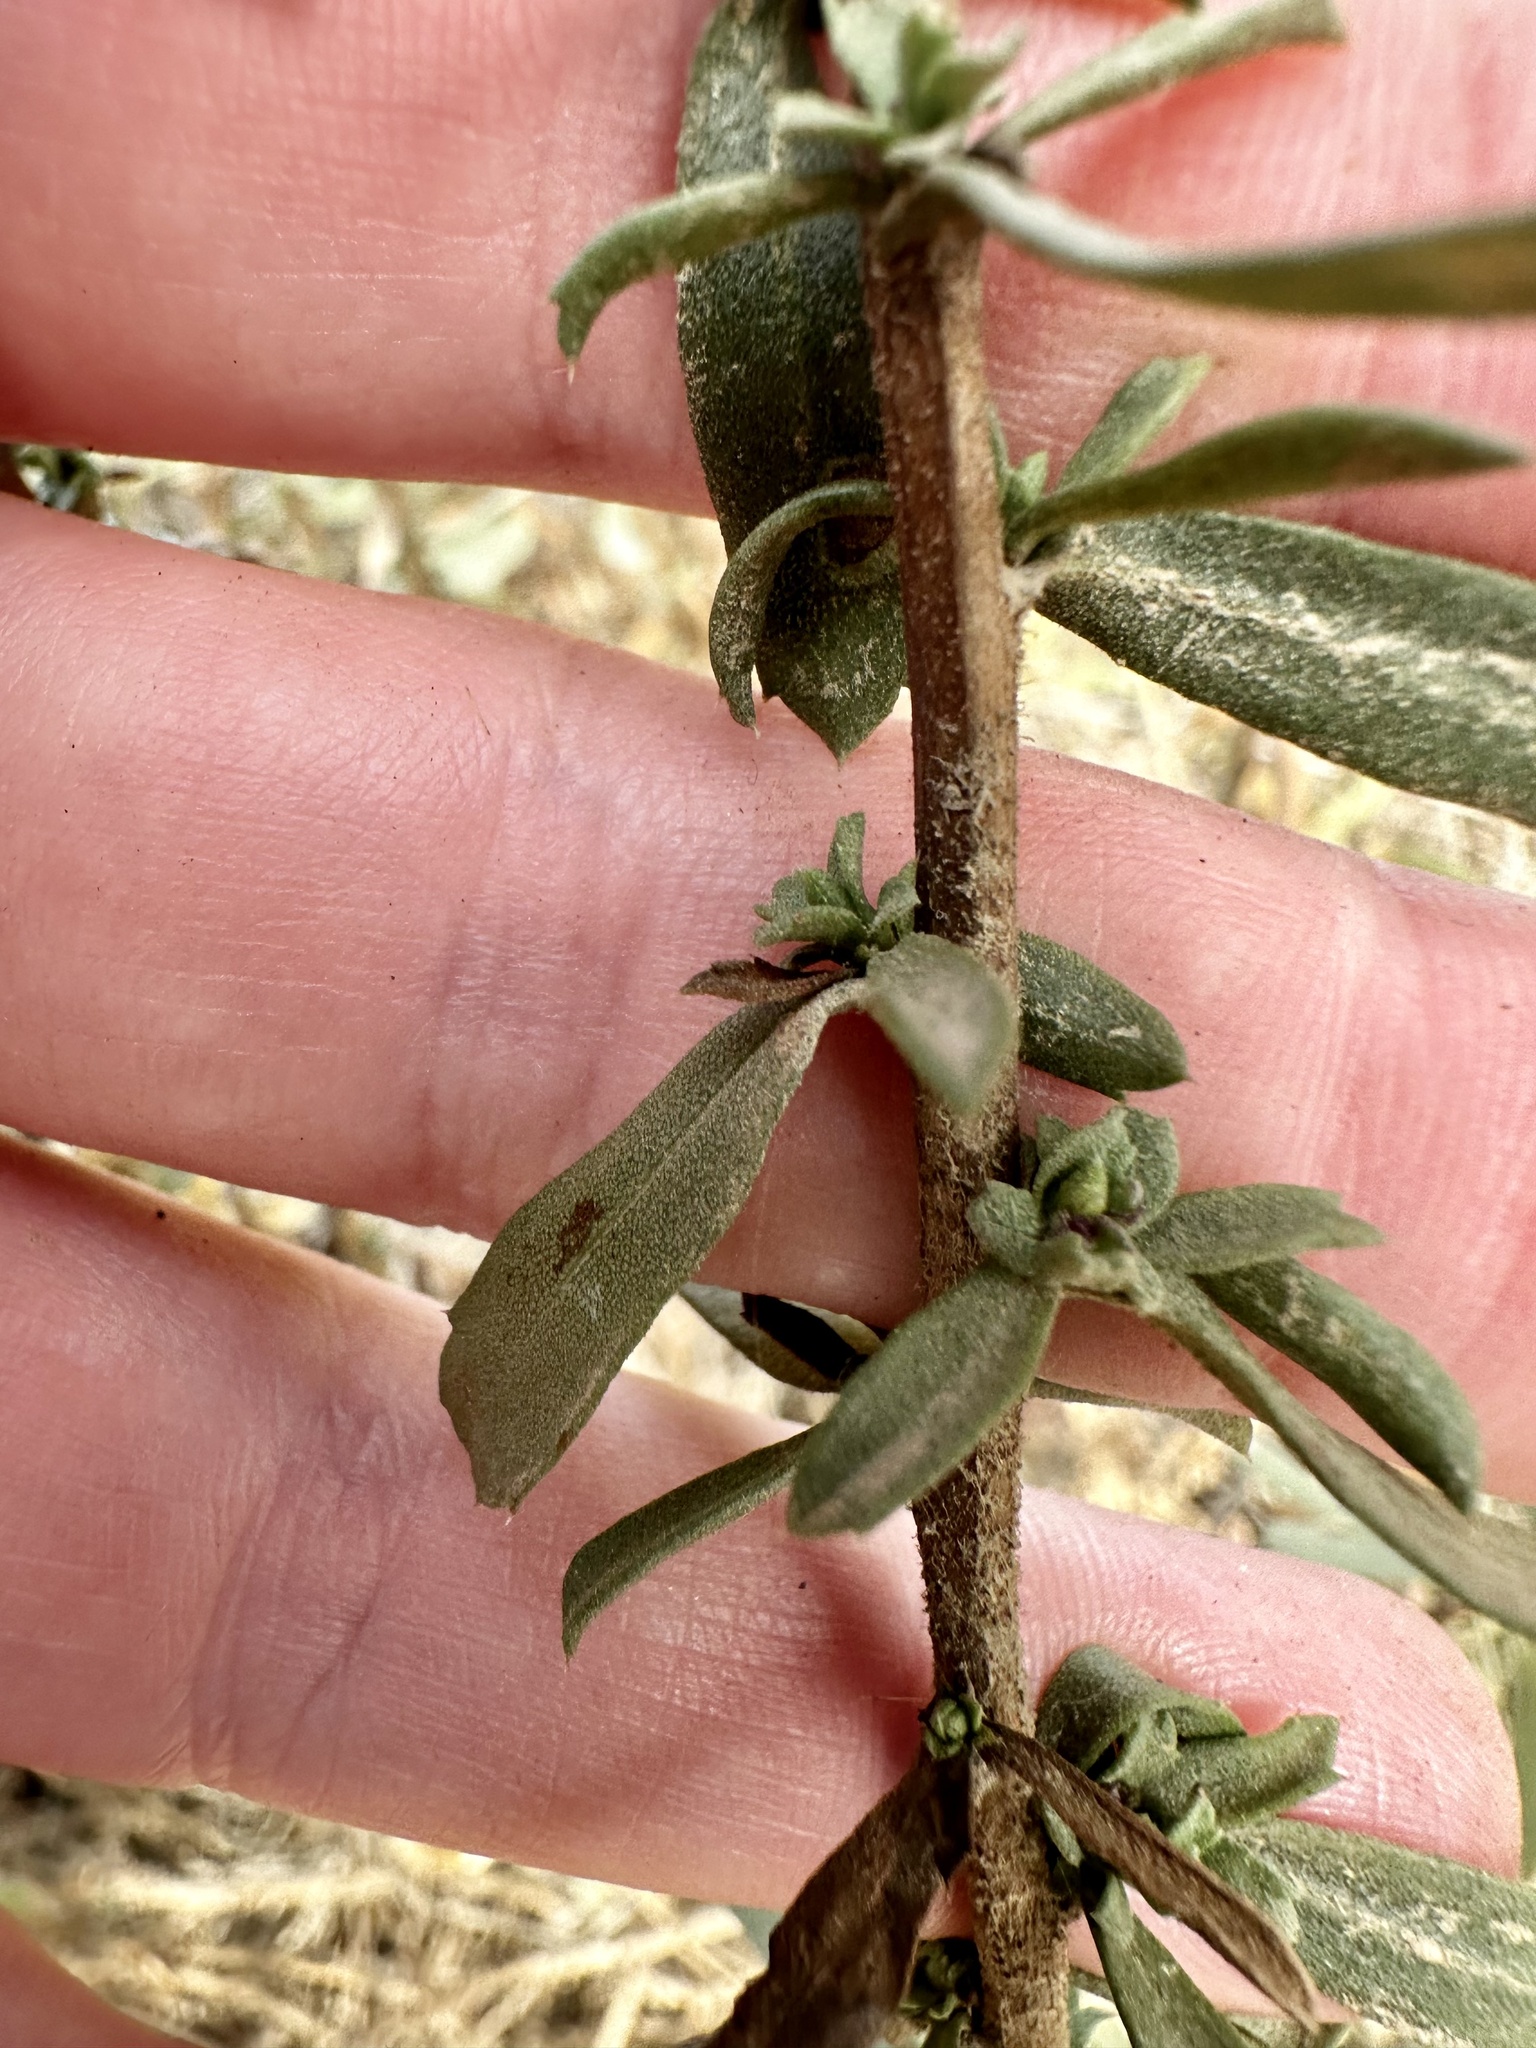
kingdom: Plantae
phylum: Tracheophyta
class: Magnoliopsida
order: Asterales
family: Asteraceae
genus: Isocoma
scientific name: Isocoma menziesii
